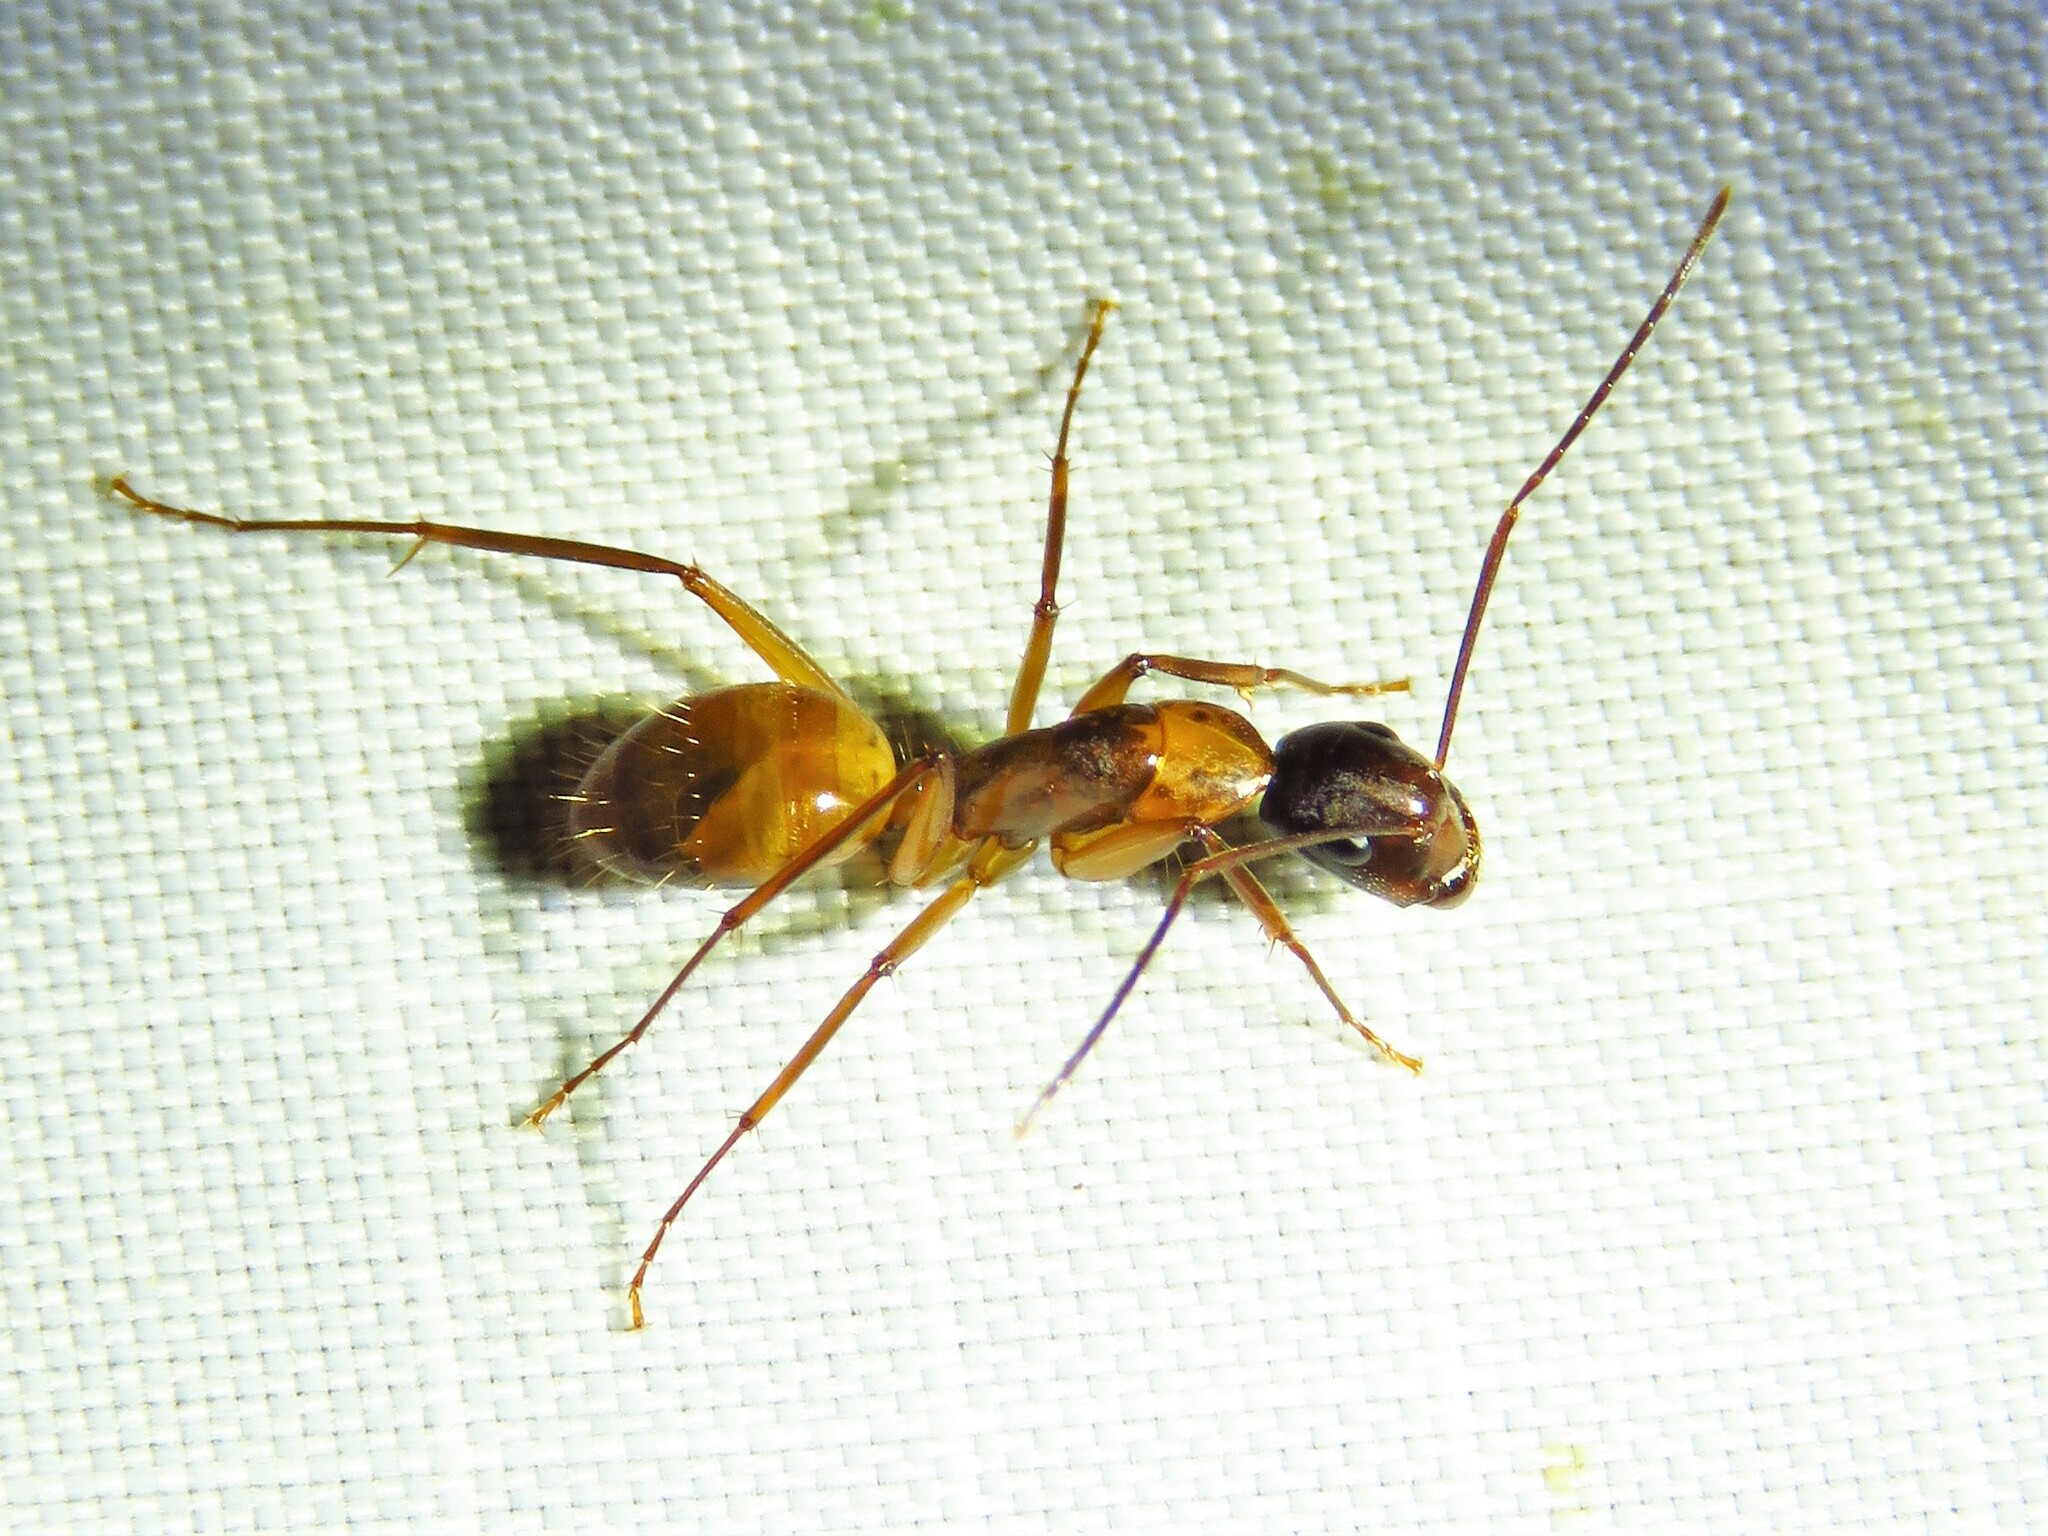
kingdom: Animalia
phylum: Arthropoda
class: Insecta
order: Hymenoptera
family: Formicidae
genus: Camponotus
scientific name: Camponotus americanus
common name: American carpenter ant
